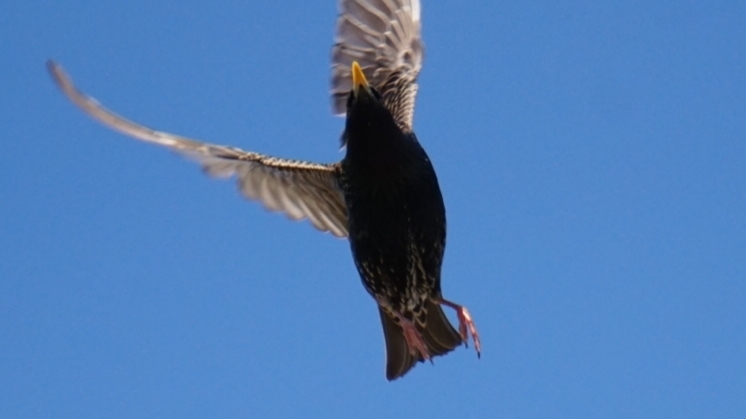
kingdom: Animalia
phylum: Chordata
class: Aves
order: Passeriformes
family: Sturnidae
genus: Sturnus
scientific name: Sturnus vulgaris
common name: Common starling
